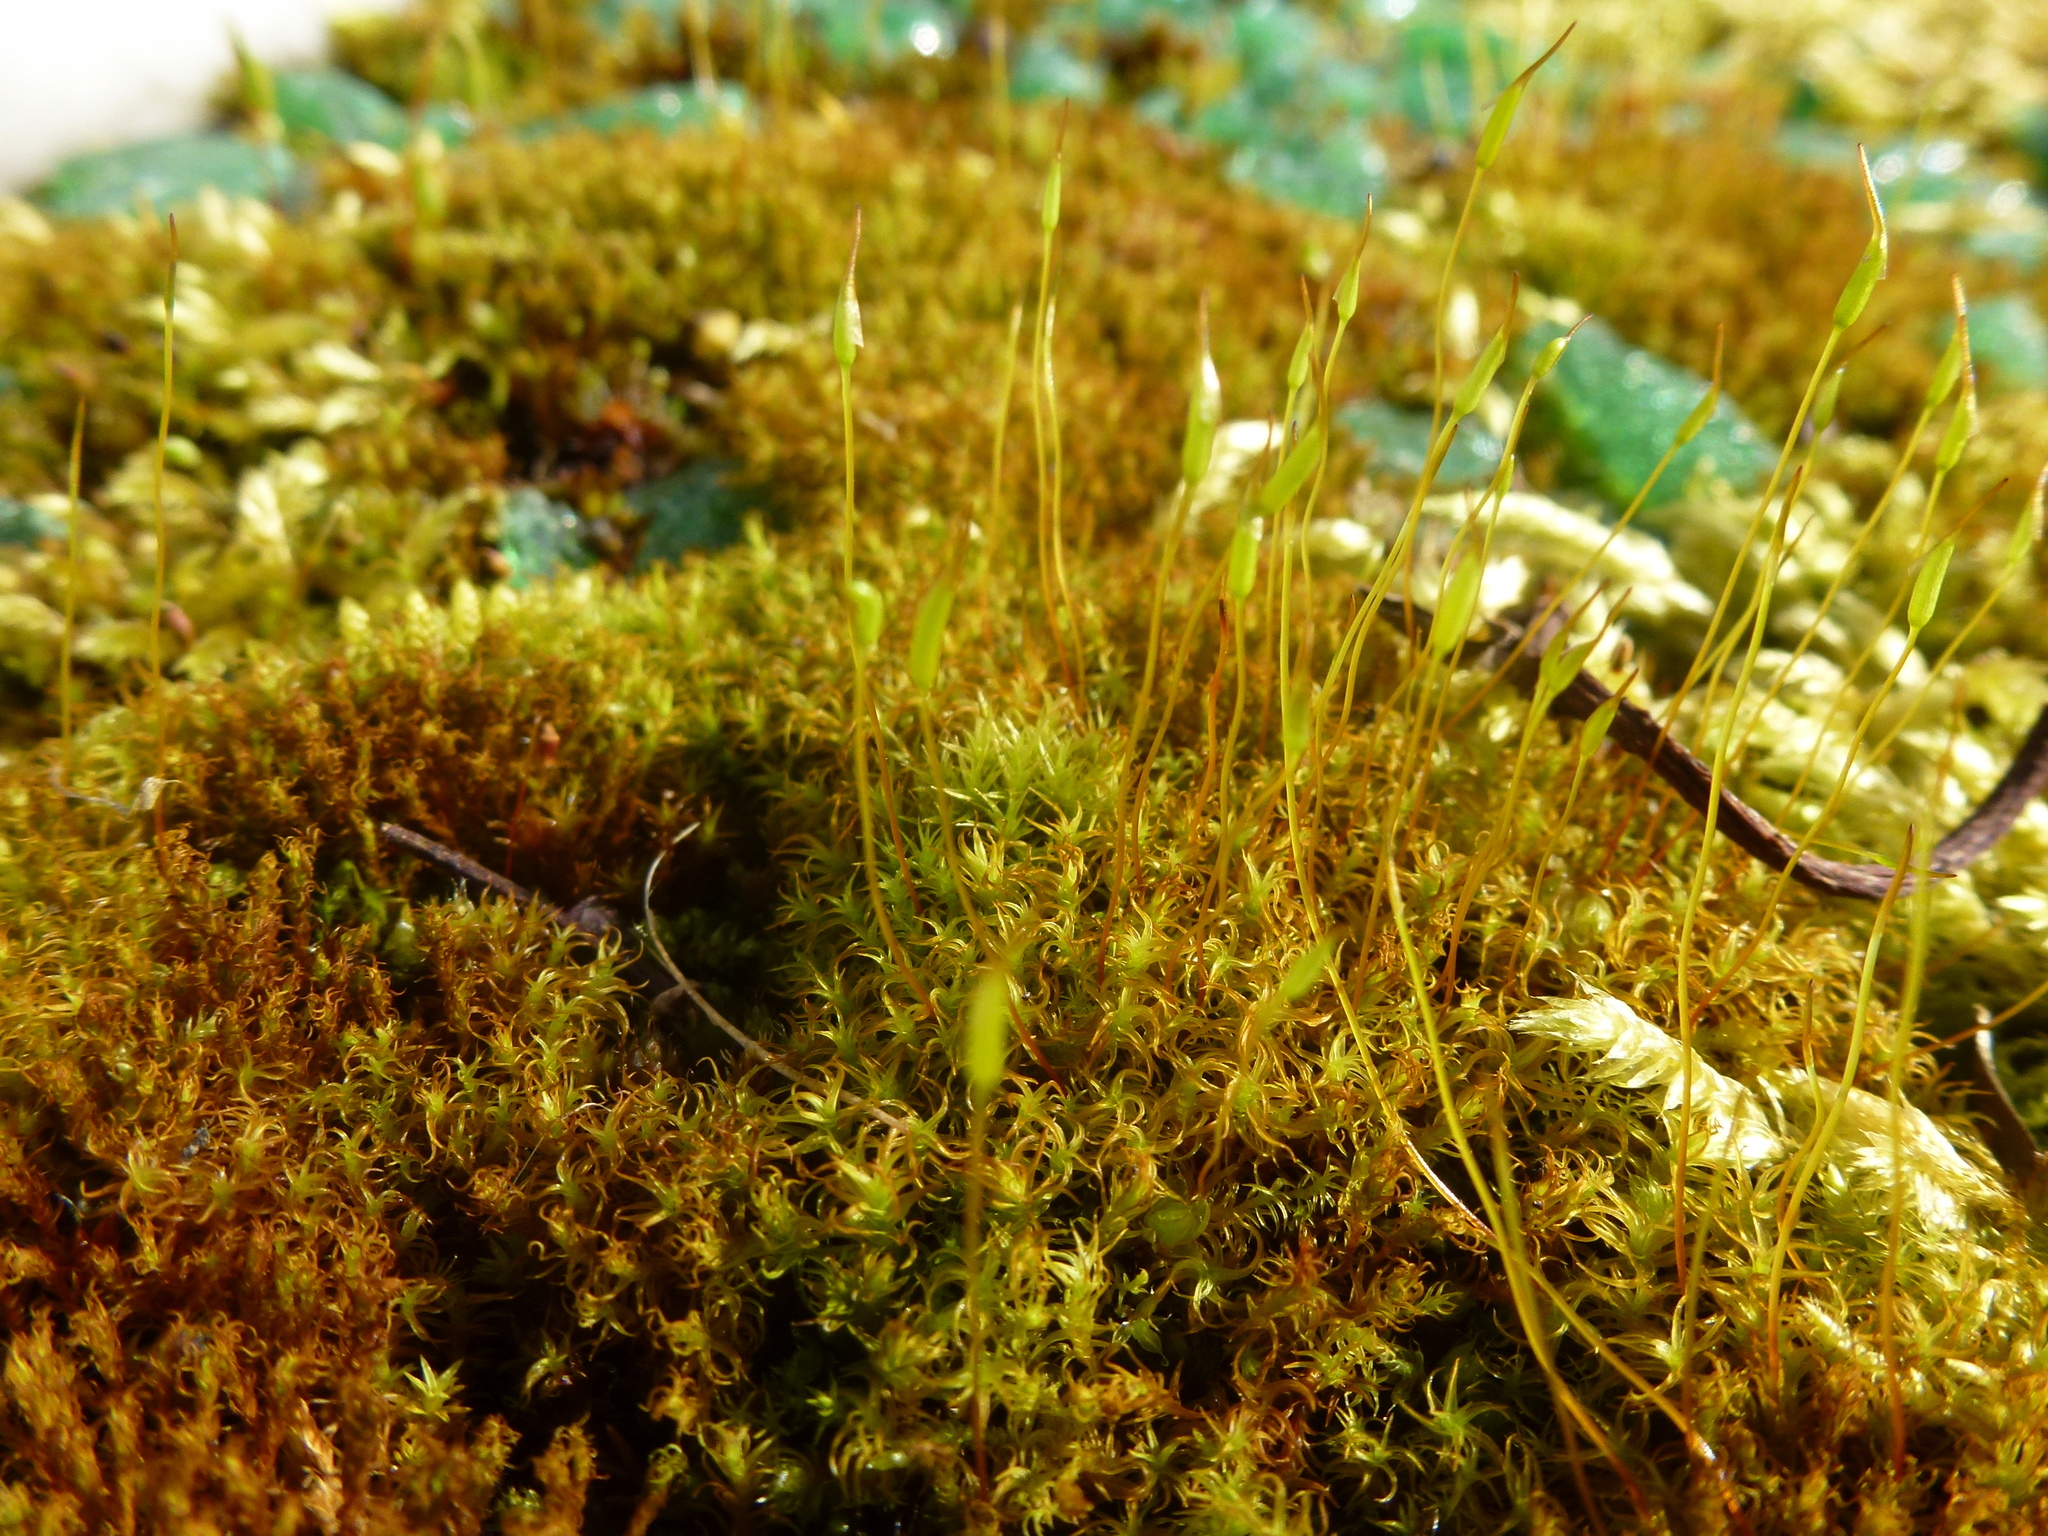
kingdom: Plantae
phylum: Bryophyta
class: Bryopsida
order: Pottiales
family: Pottiaceae
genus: Vinealobryum
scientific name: Vinealobryum insulanum
